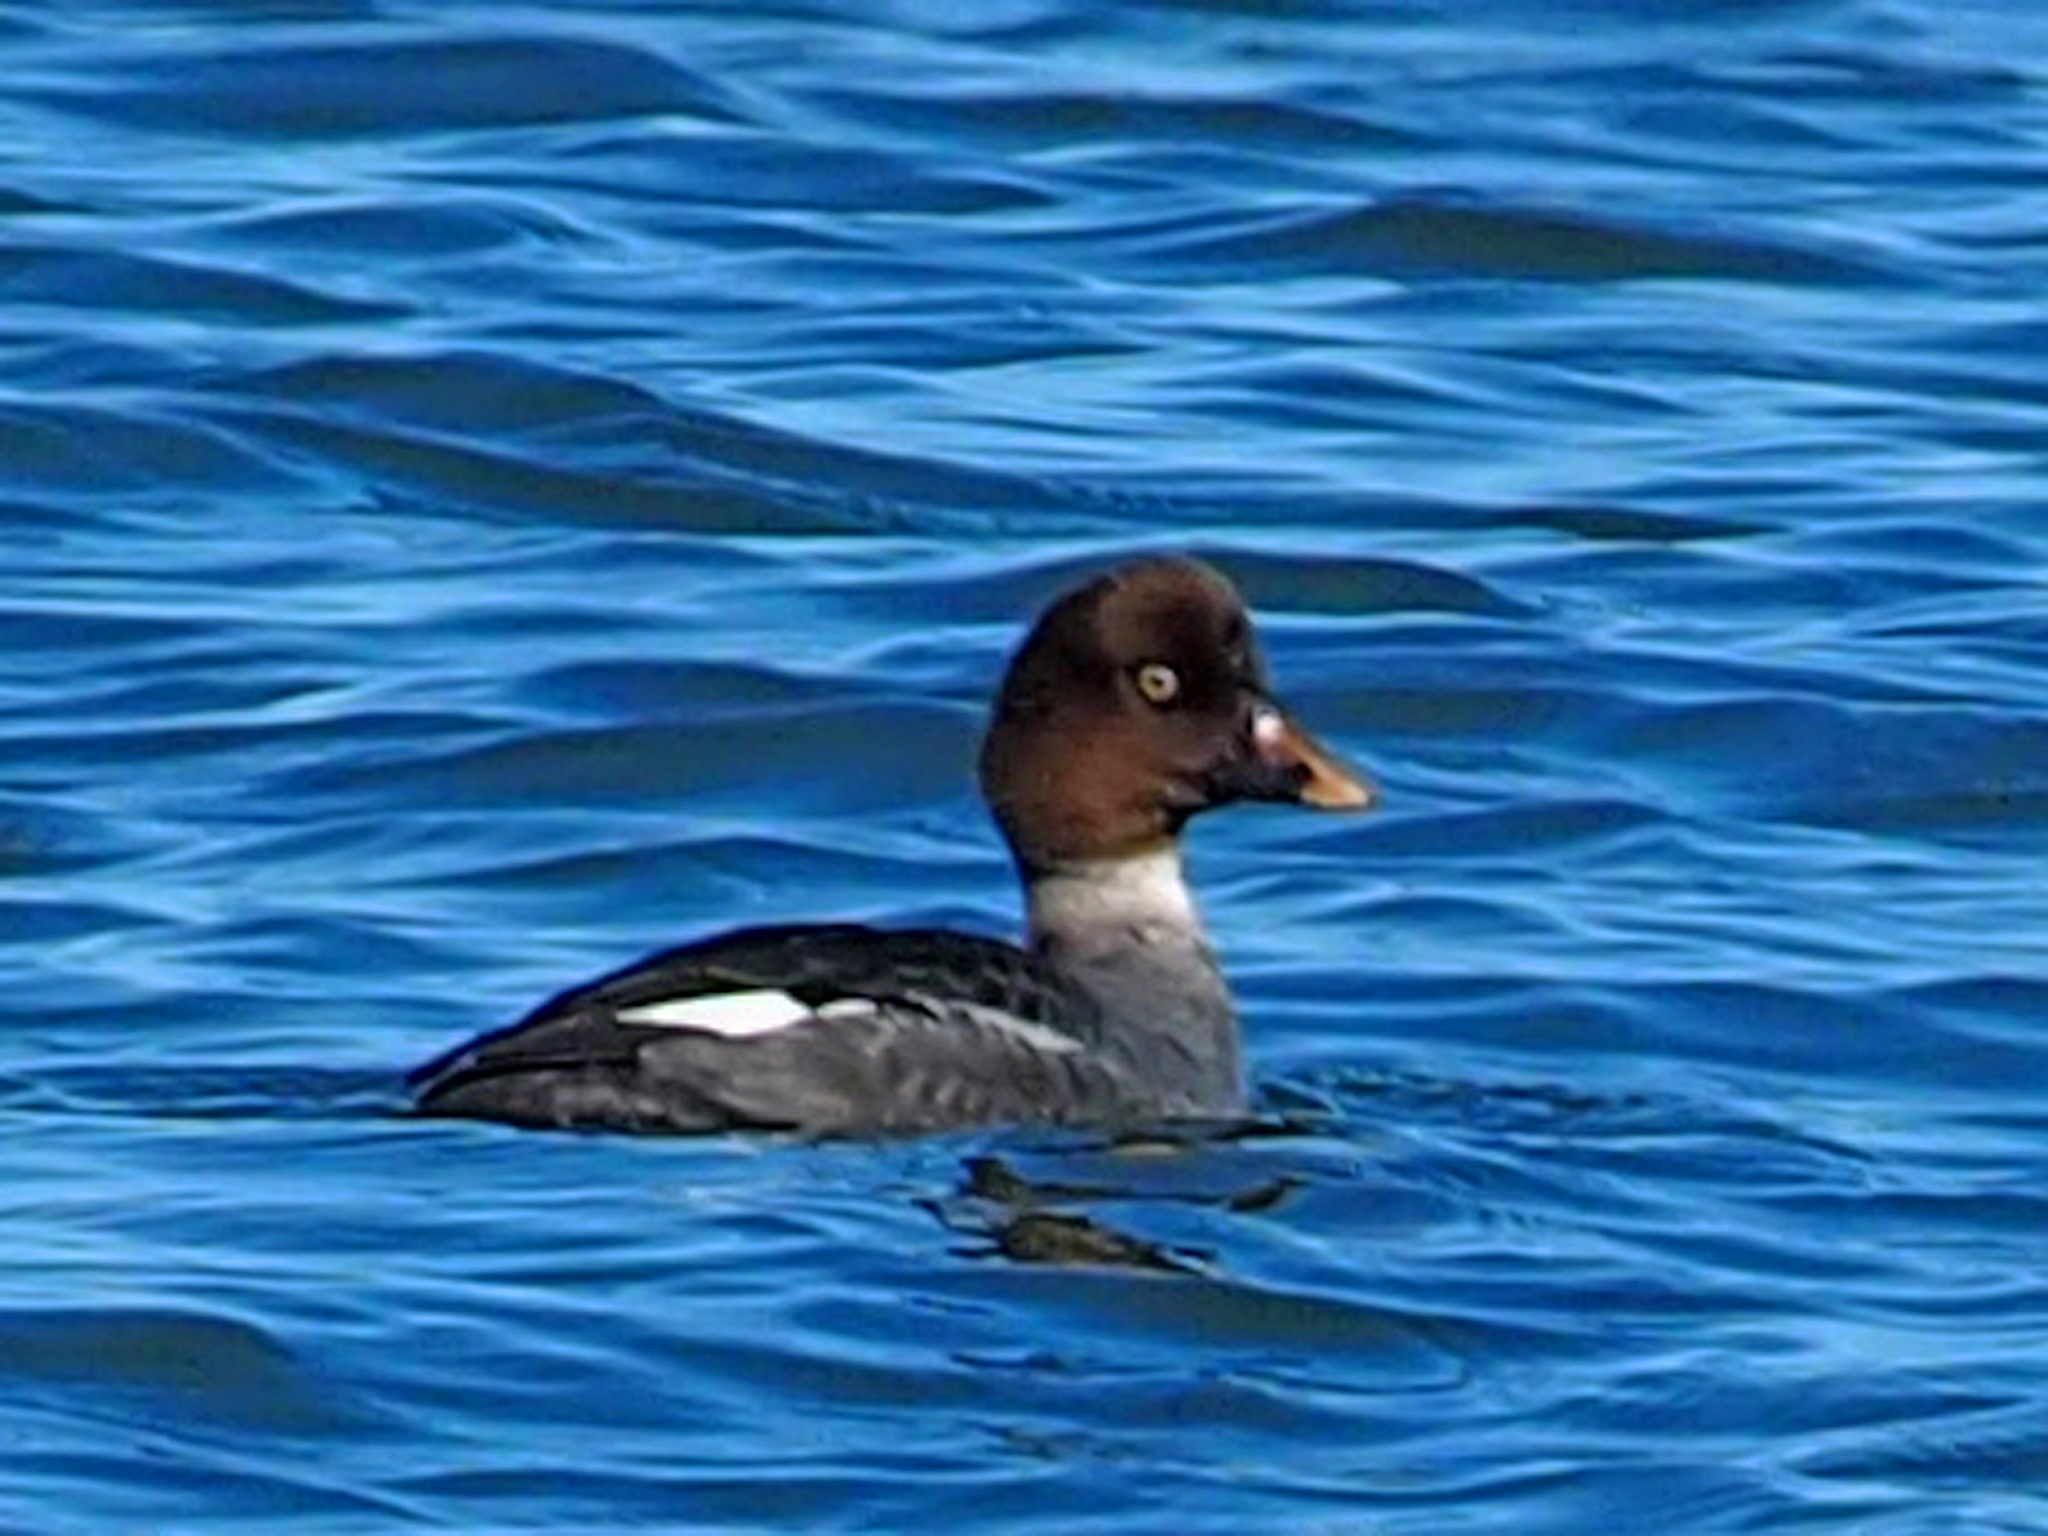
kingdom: Animalia
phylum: Chordata
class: Aves
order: Anseriformes
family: Anatidae
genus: Bucephala
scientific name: Bucephala clangula
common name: Common goldeneye
